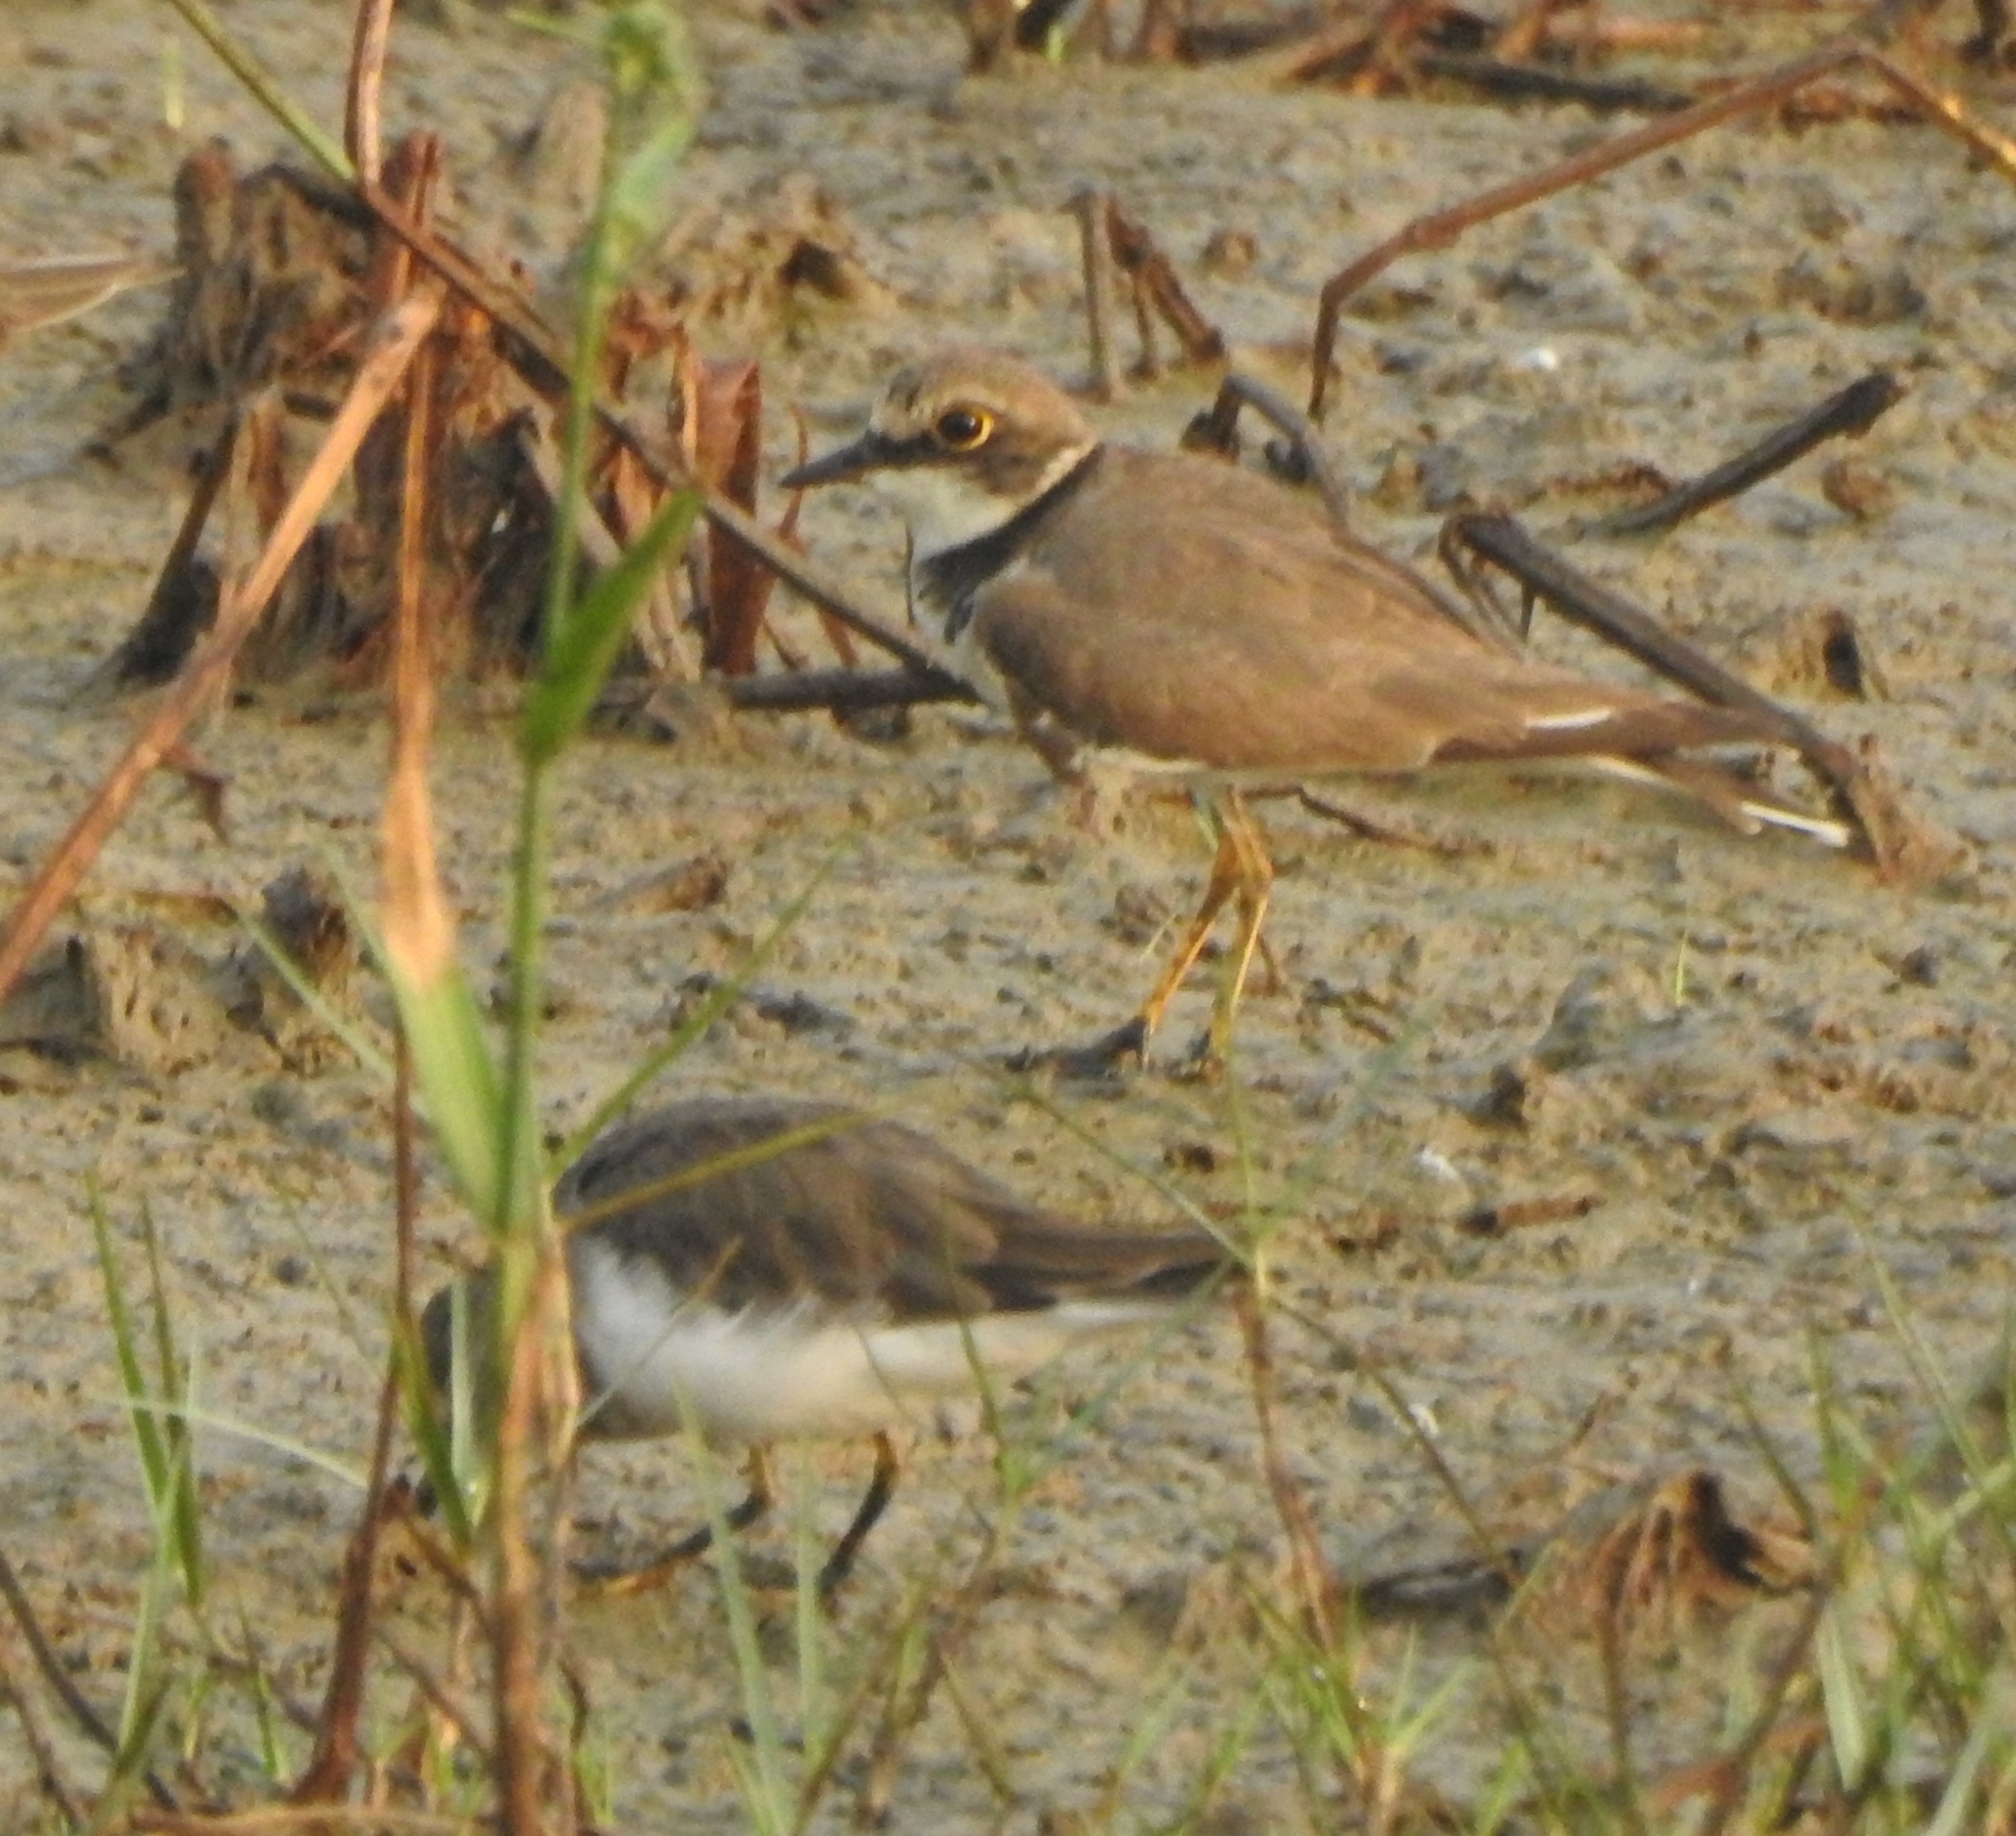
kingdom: Animalia
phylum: Chordata
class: Aves
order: Charadriiformes
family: Charadriidae
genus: Charadrius
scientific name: Charadrius dubius
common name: Little ringed plover
